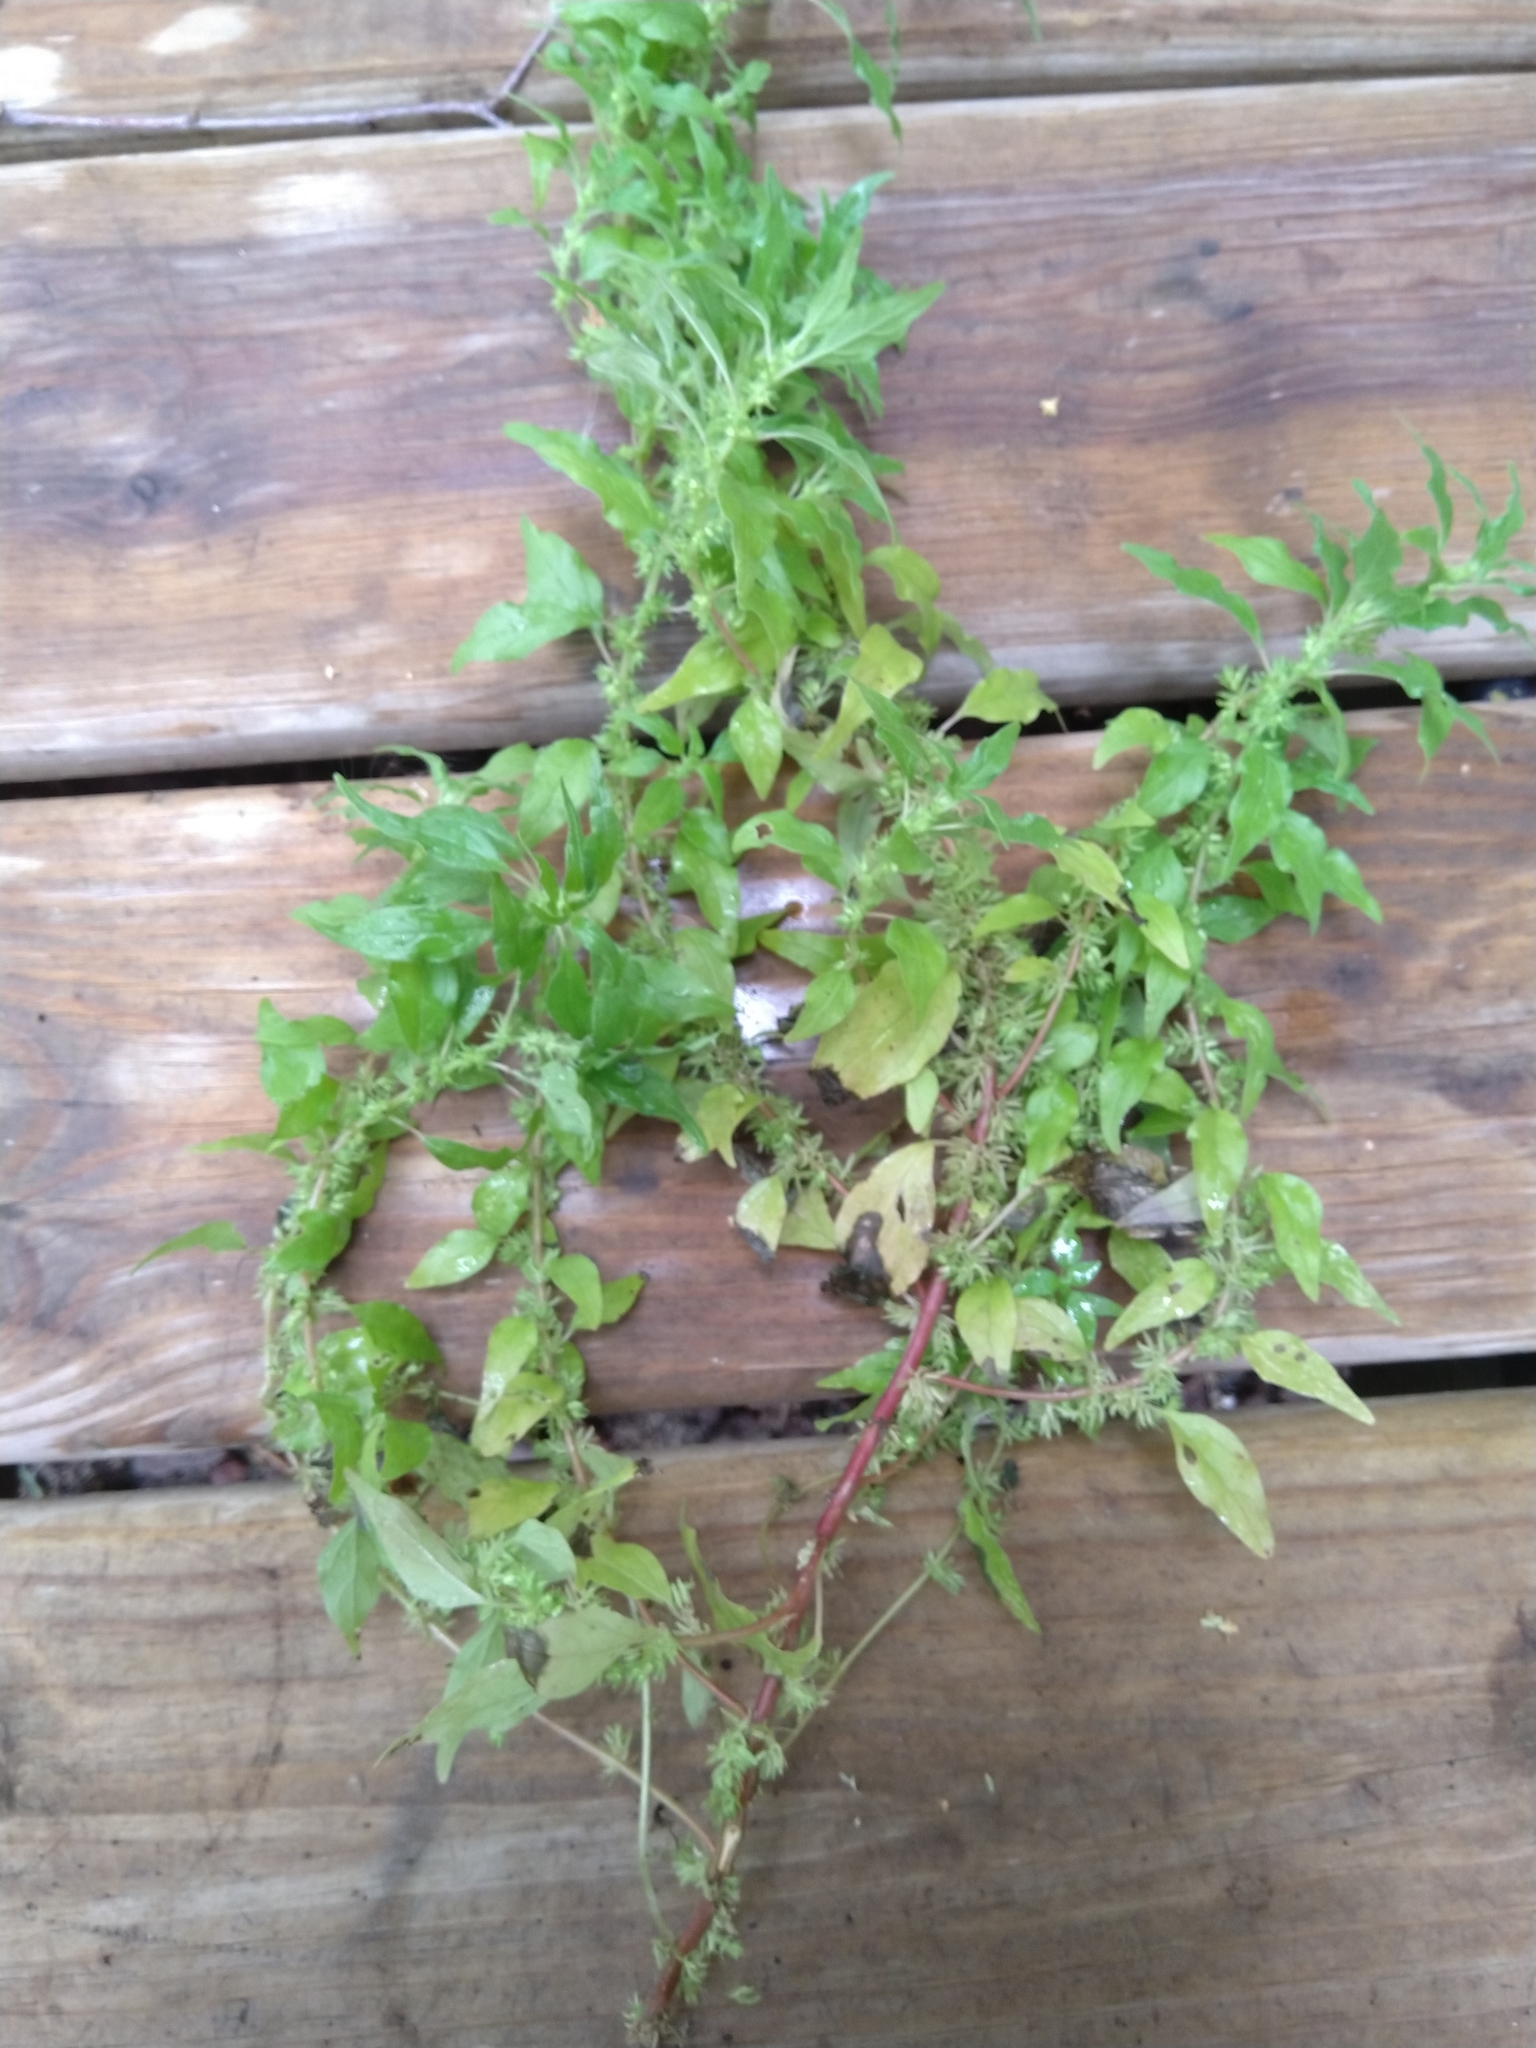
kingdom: Plantae
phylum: Tracheophyta
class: Magnoliopsida
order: Rosales
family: Urticaceae
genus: Parietaria
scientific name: Parietaria pensylvanica
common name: Pennsylvania pellitory
